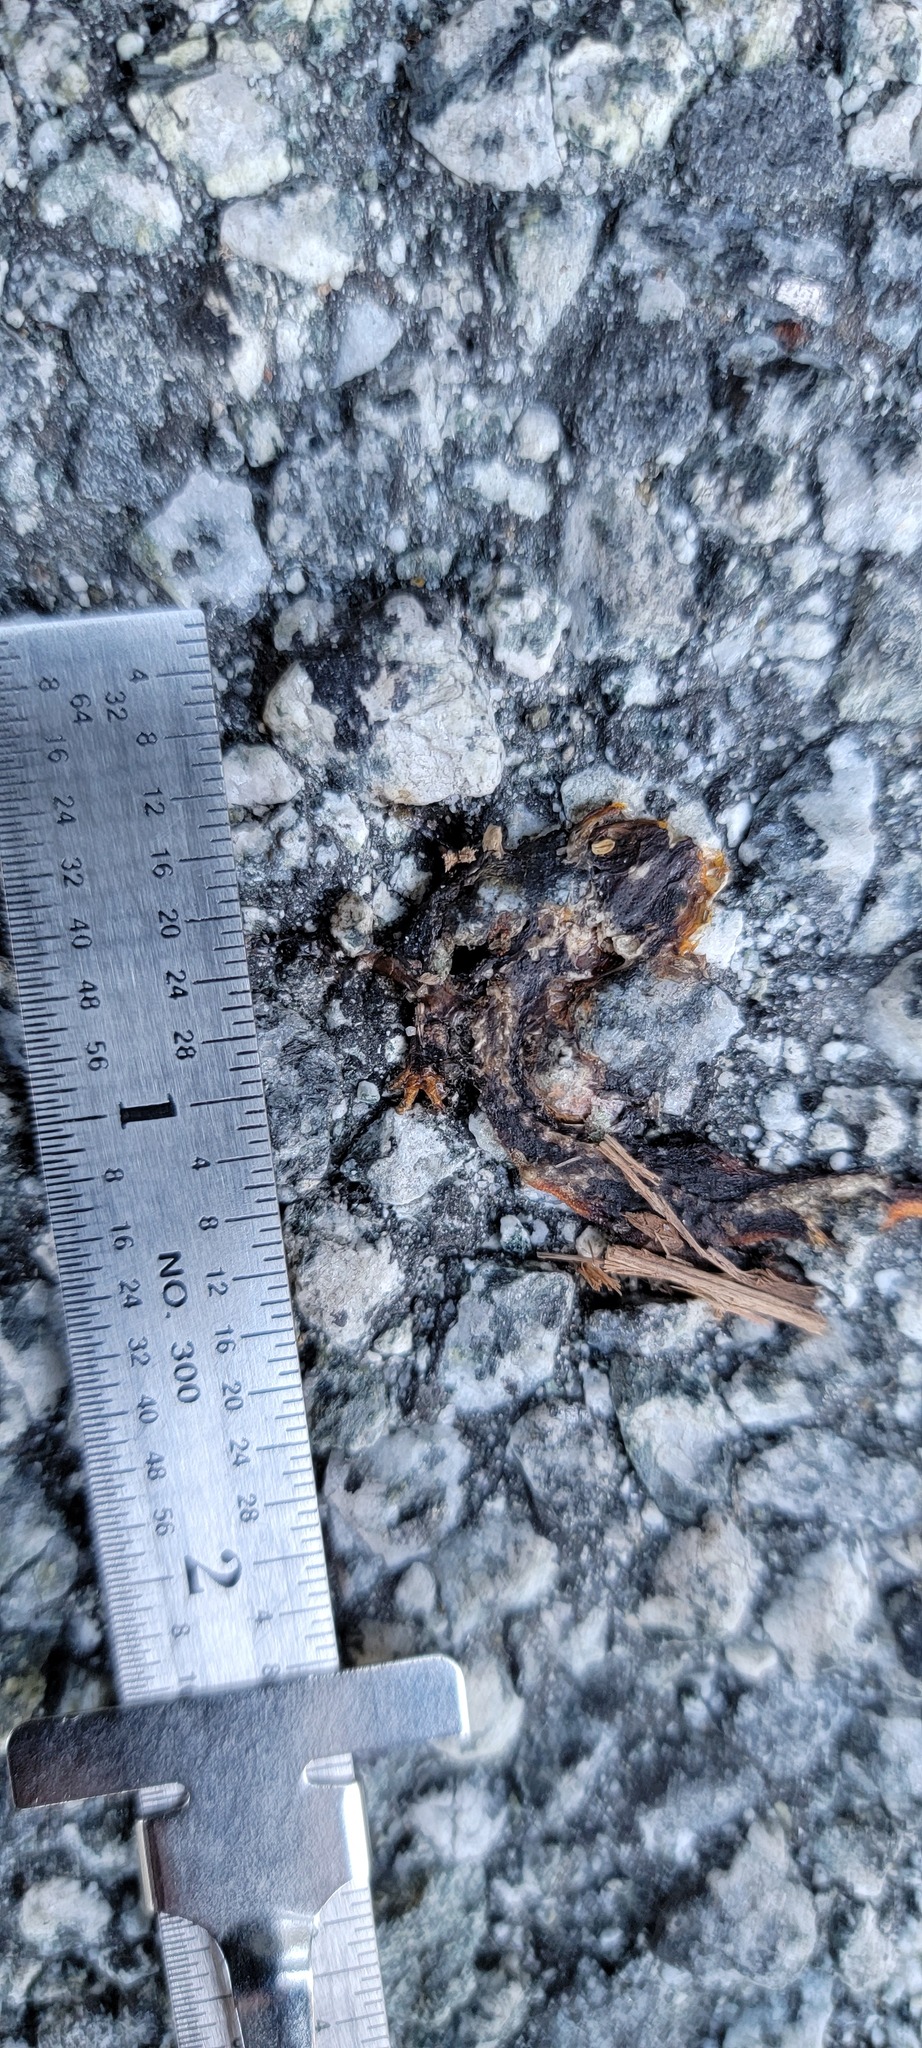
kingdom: Animalia
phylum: Chordata
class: Amphibia
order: Caudata
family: Salamandridae
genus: Taricha
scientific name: Taricha
